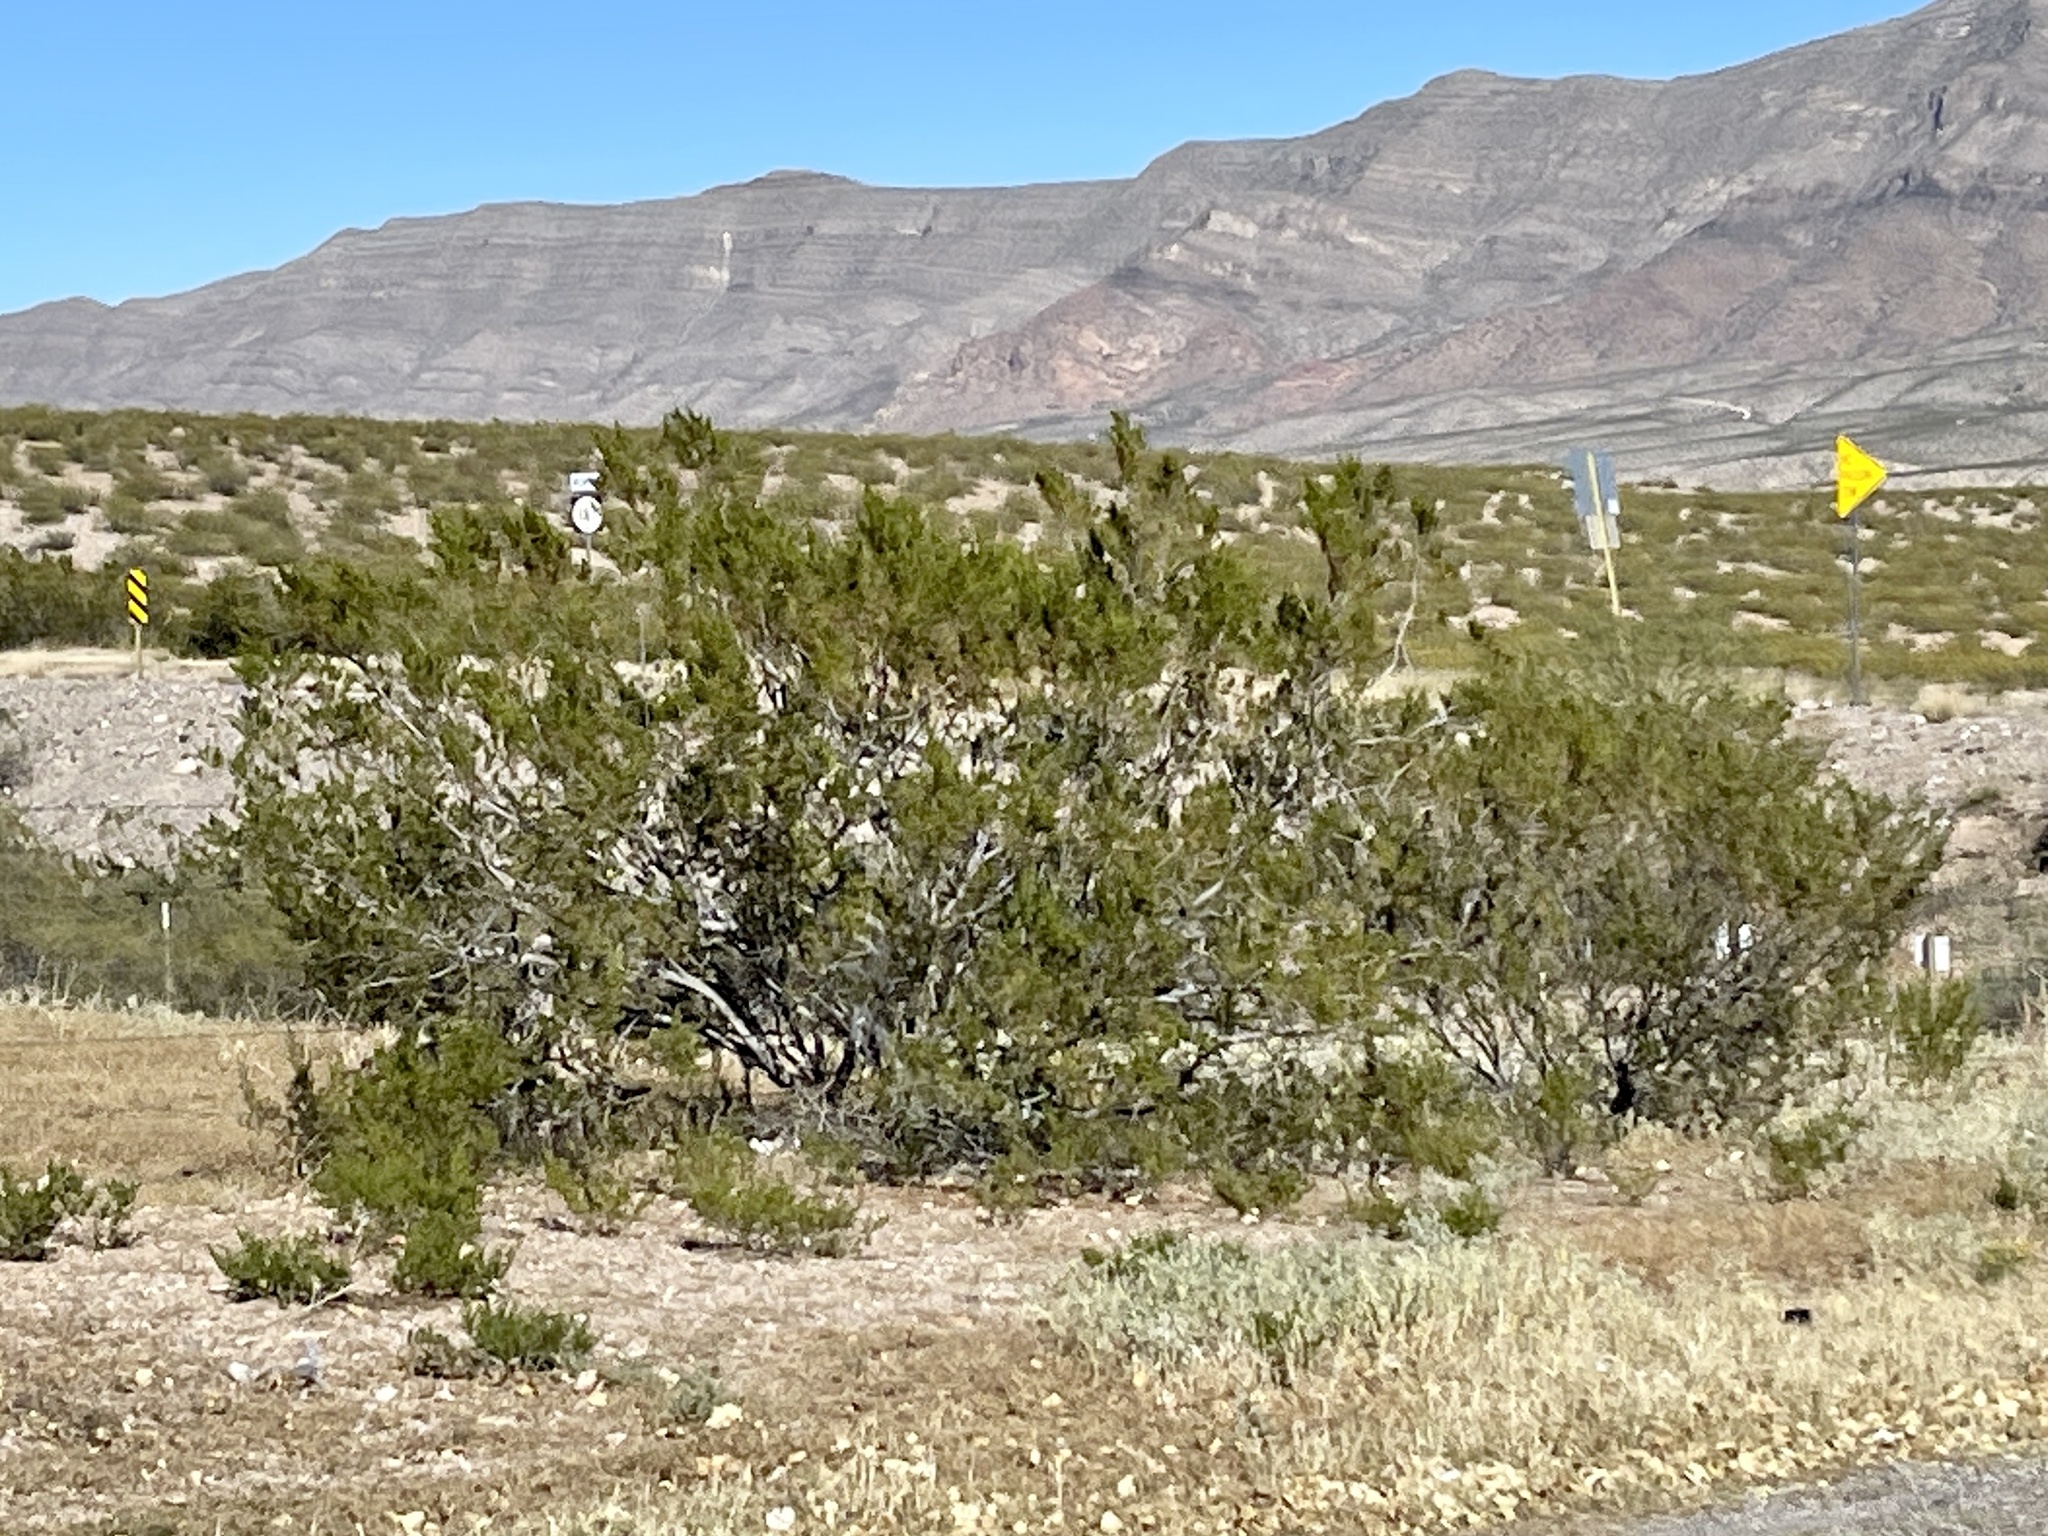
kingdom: Plantae
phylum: Tracheophyta
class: Magnoliopsida
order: Zygophyllales
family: Zygophyllaceae
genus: Larrea
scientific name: Larrea tridentata
